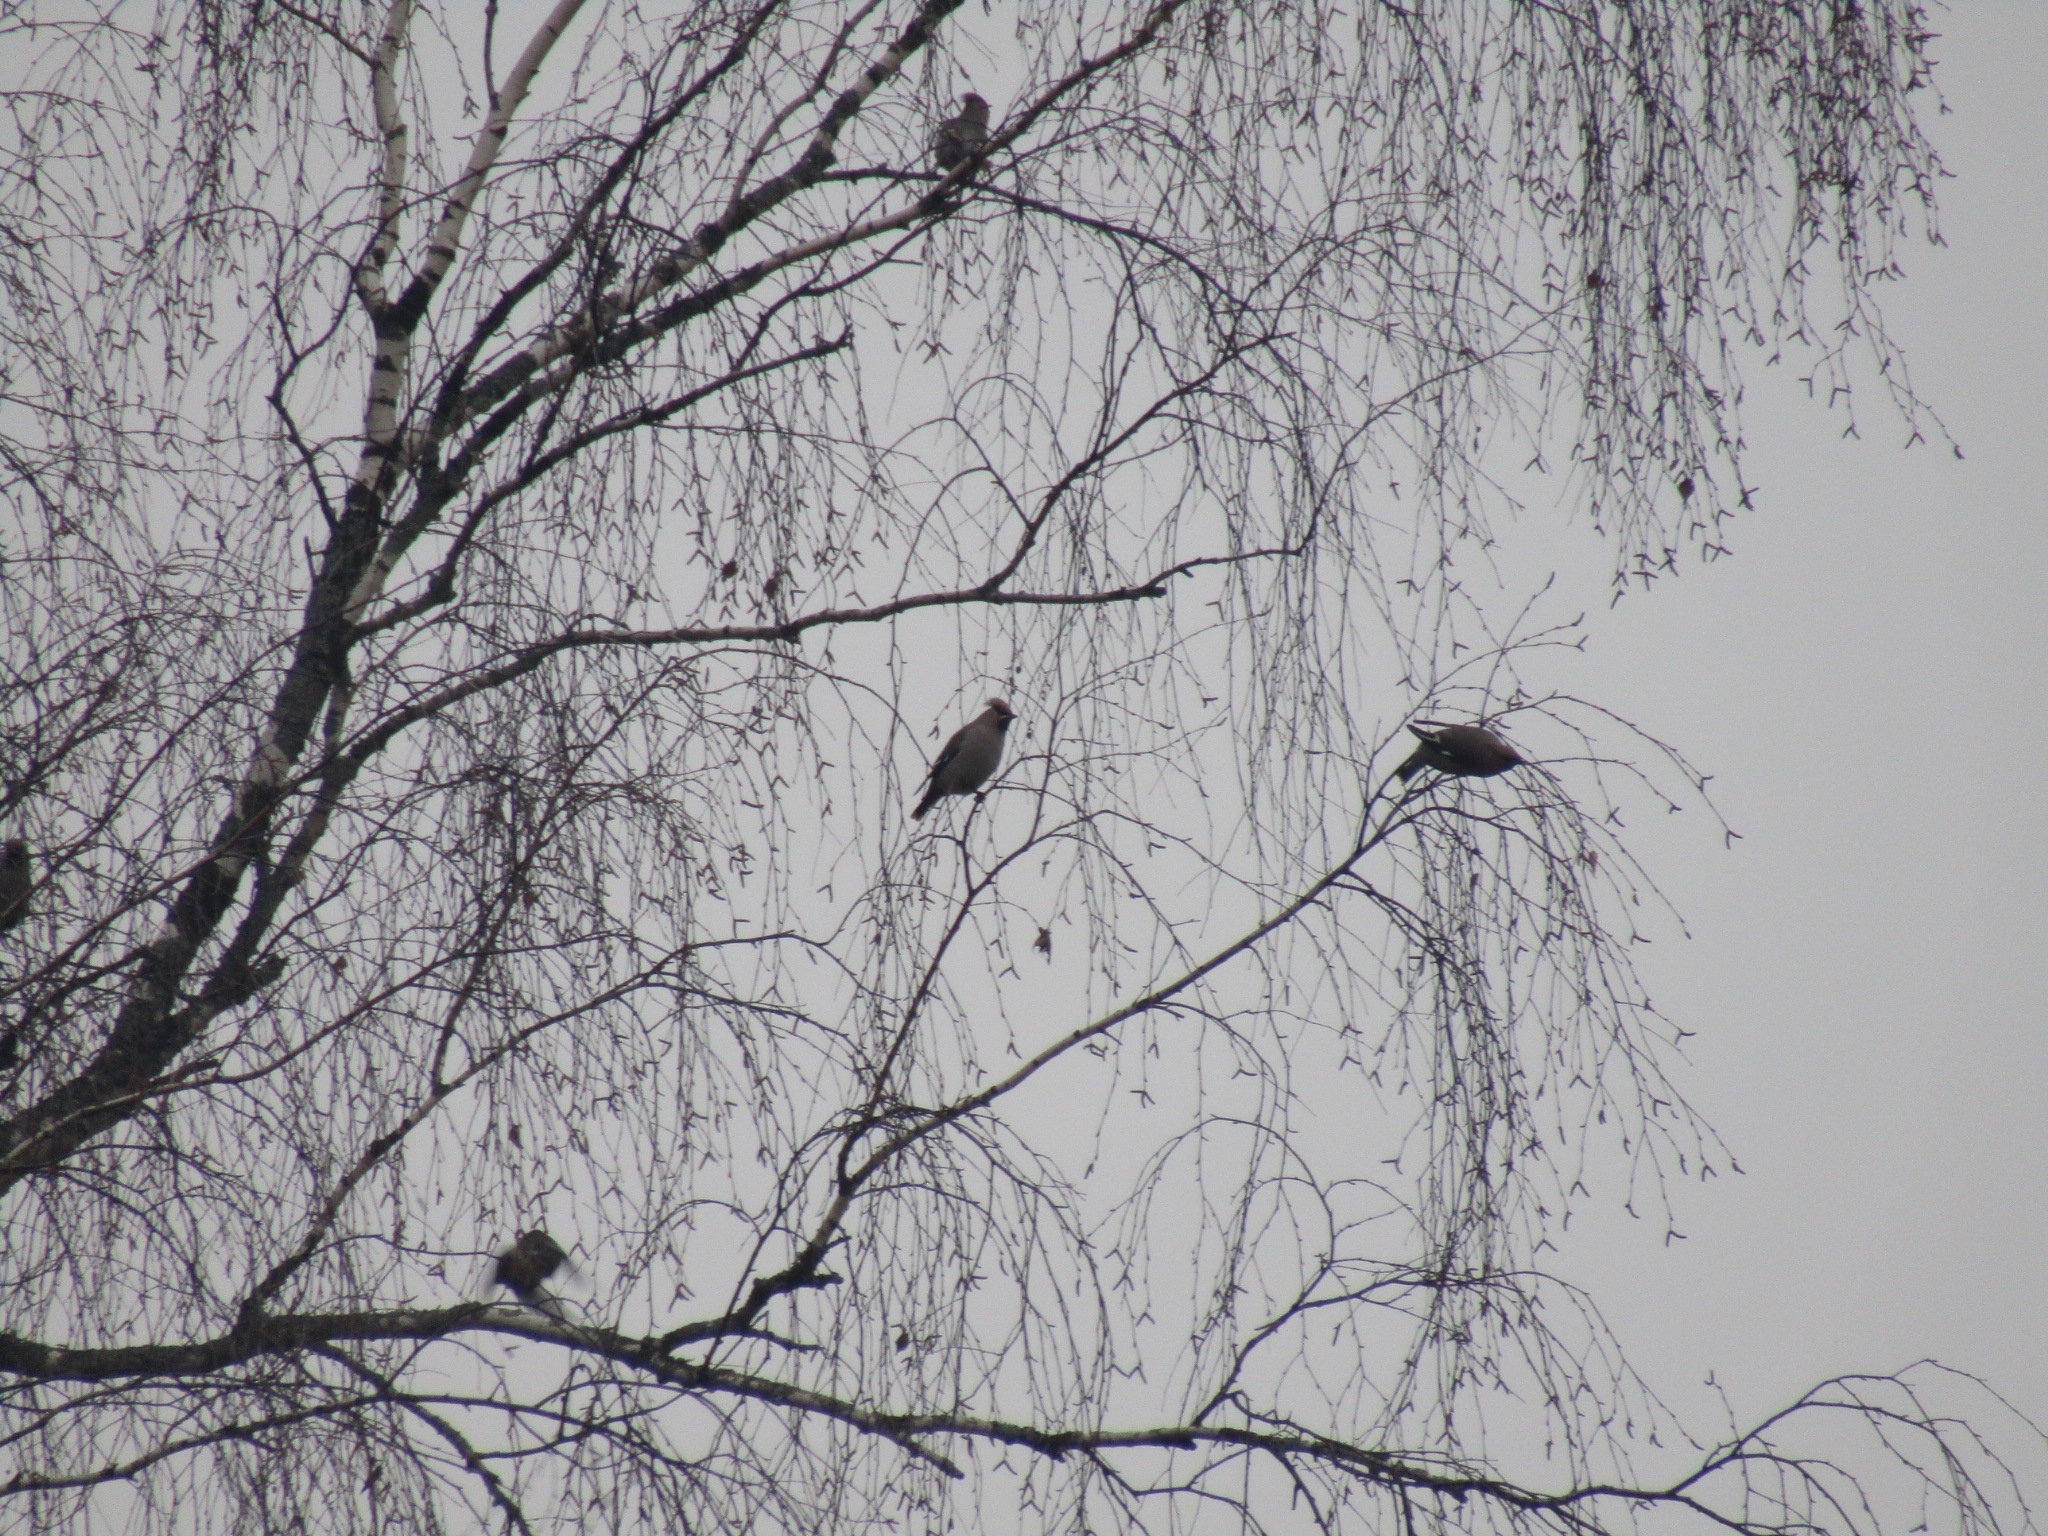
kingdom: Animalia
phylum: Chordata
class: Aves
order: Passeriformes
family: Bombycillidae
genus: Bombycilla
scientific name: Bombycilla garrulus
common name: Bohemian waxwing
